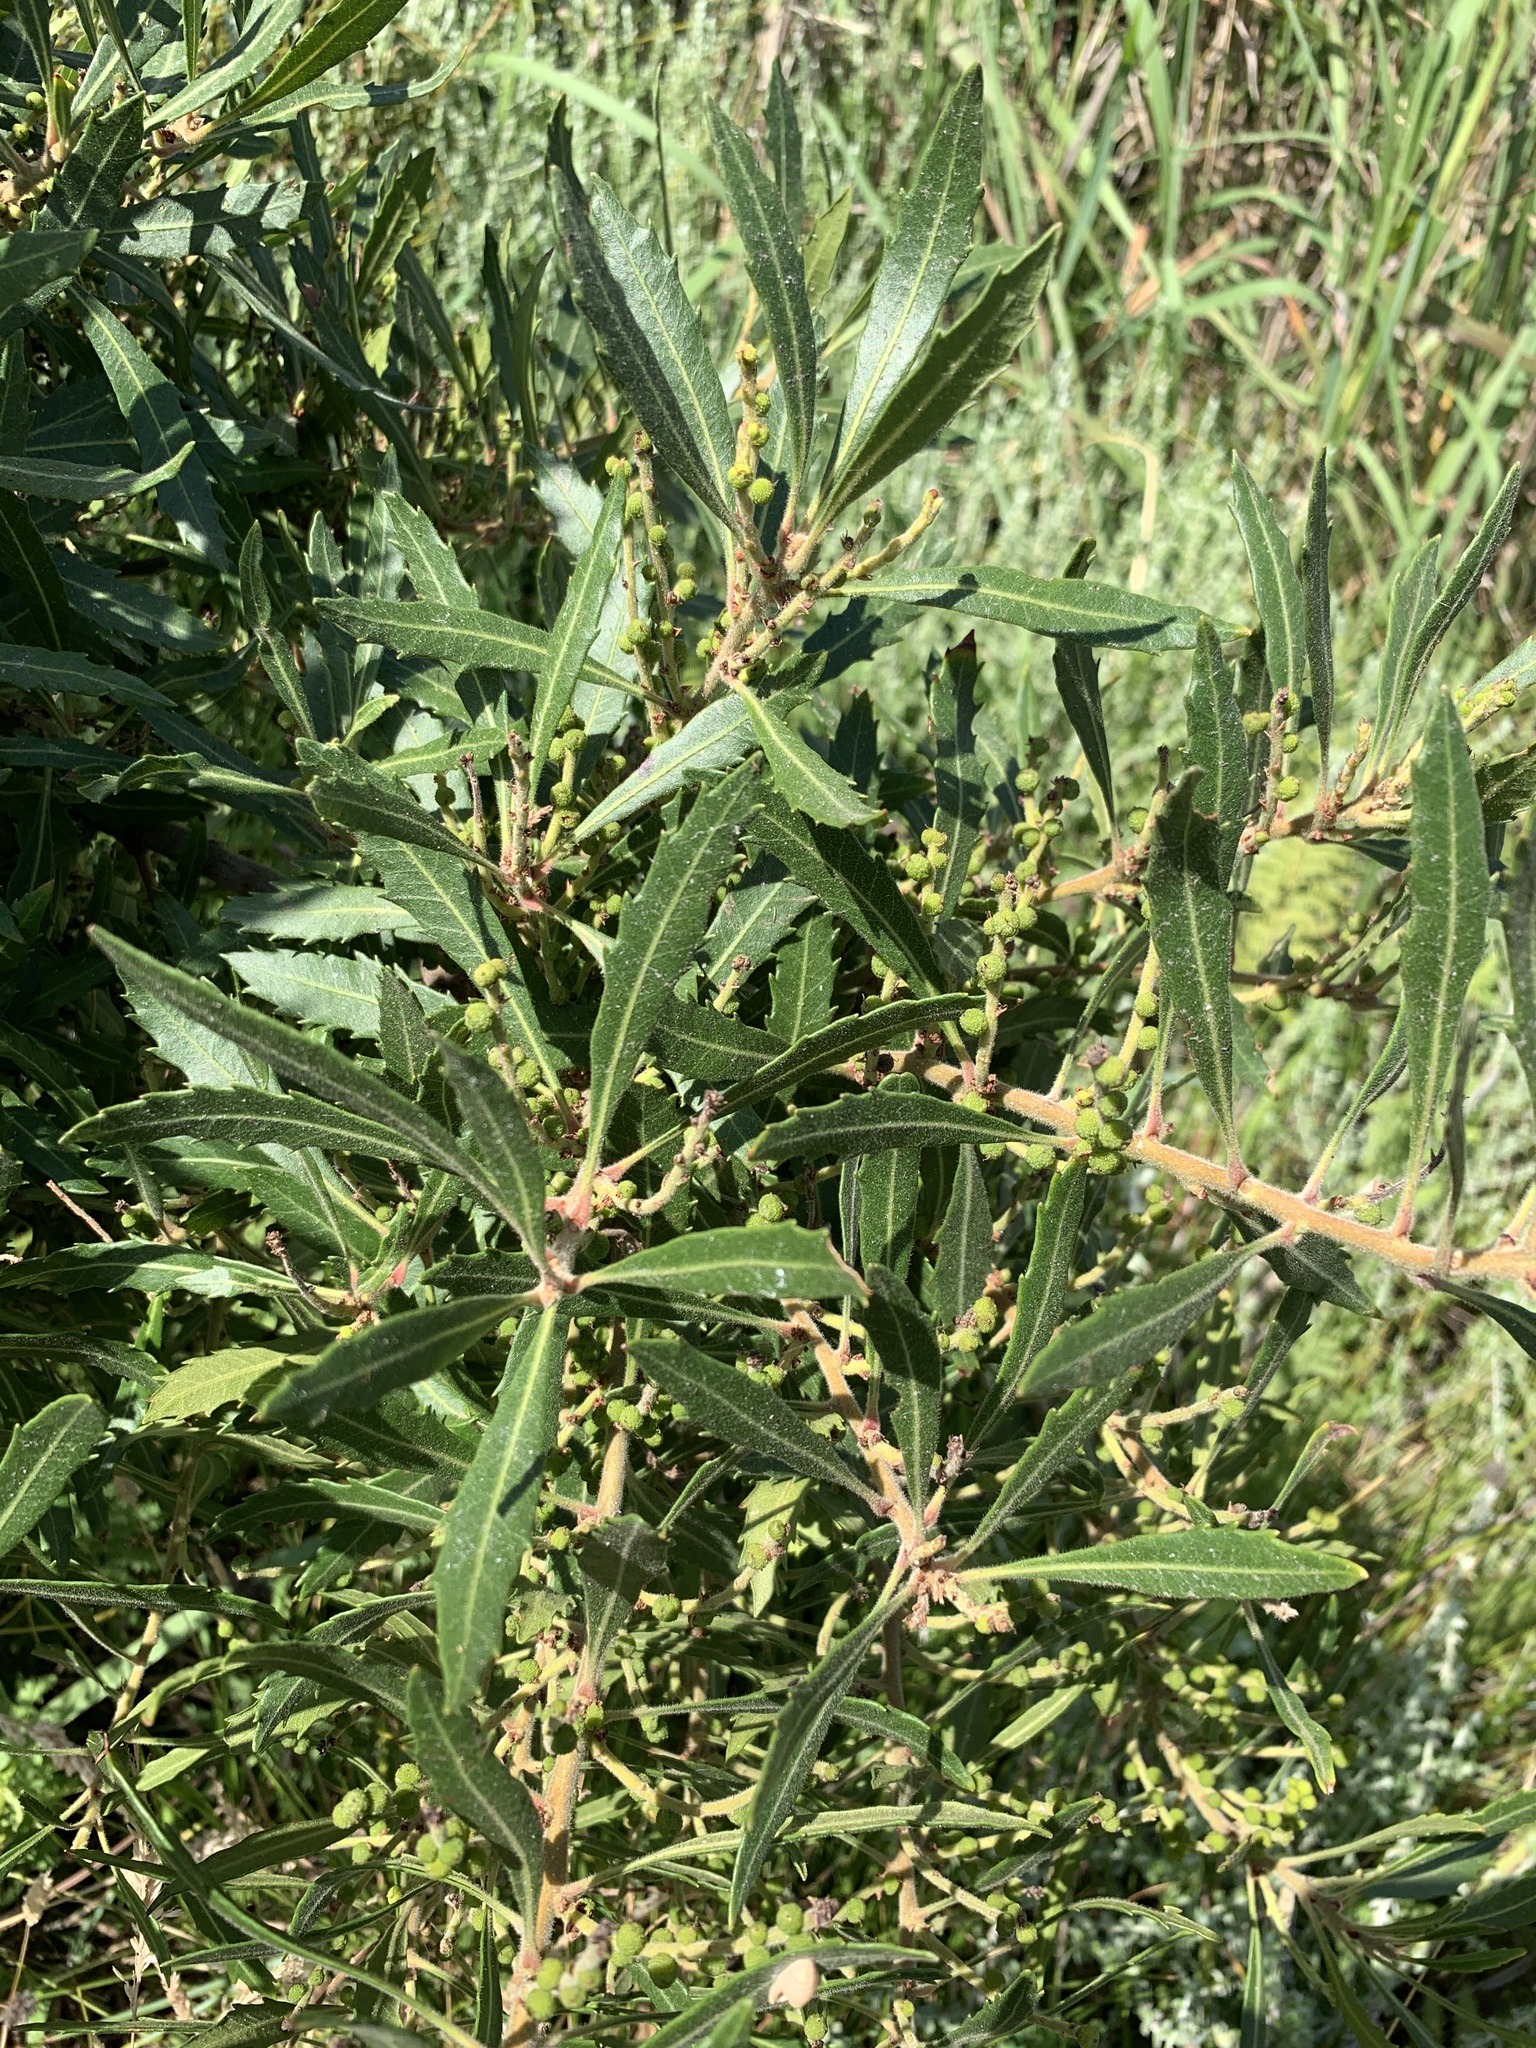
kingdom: Plantae
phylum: Tracheophyta
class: Magnoliopsida
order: Fagales
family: Myricaceae
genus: Morella
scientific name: Morella serrata
